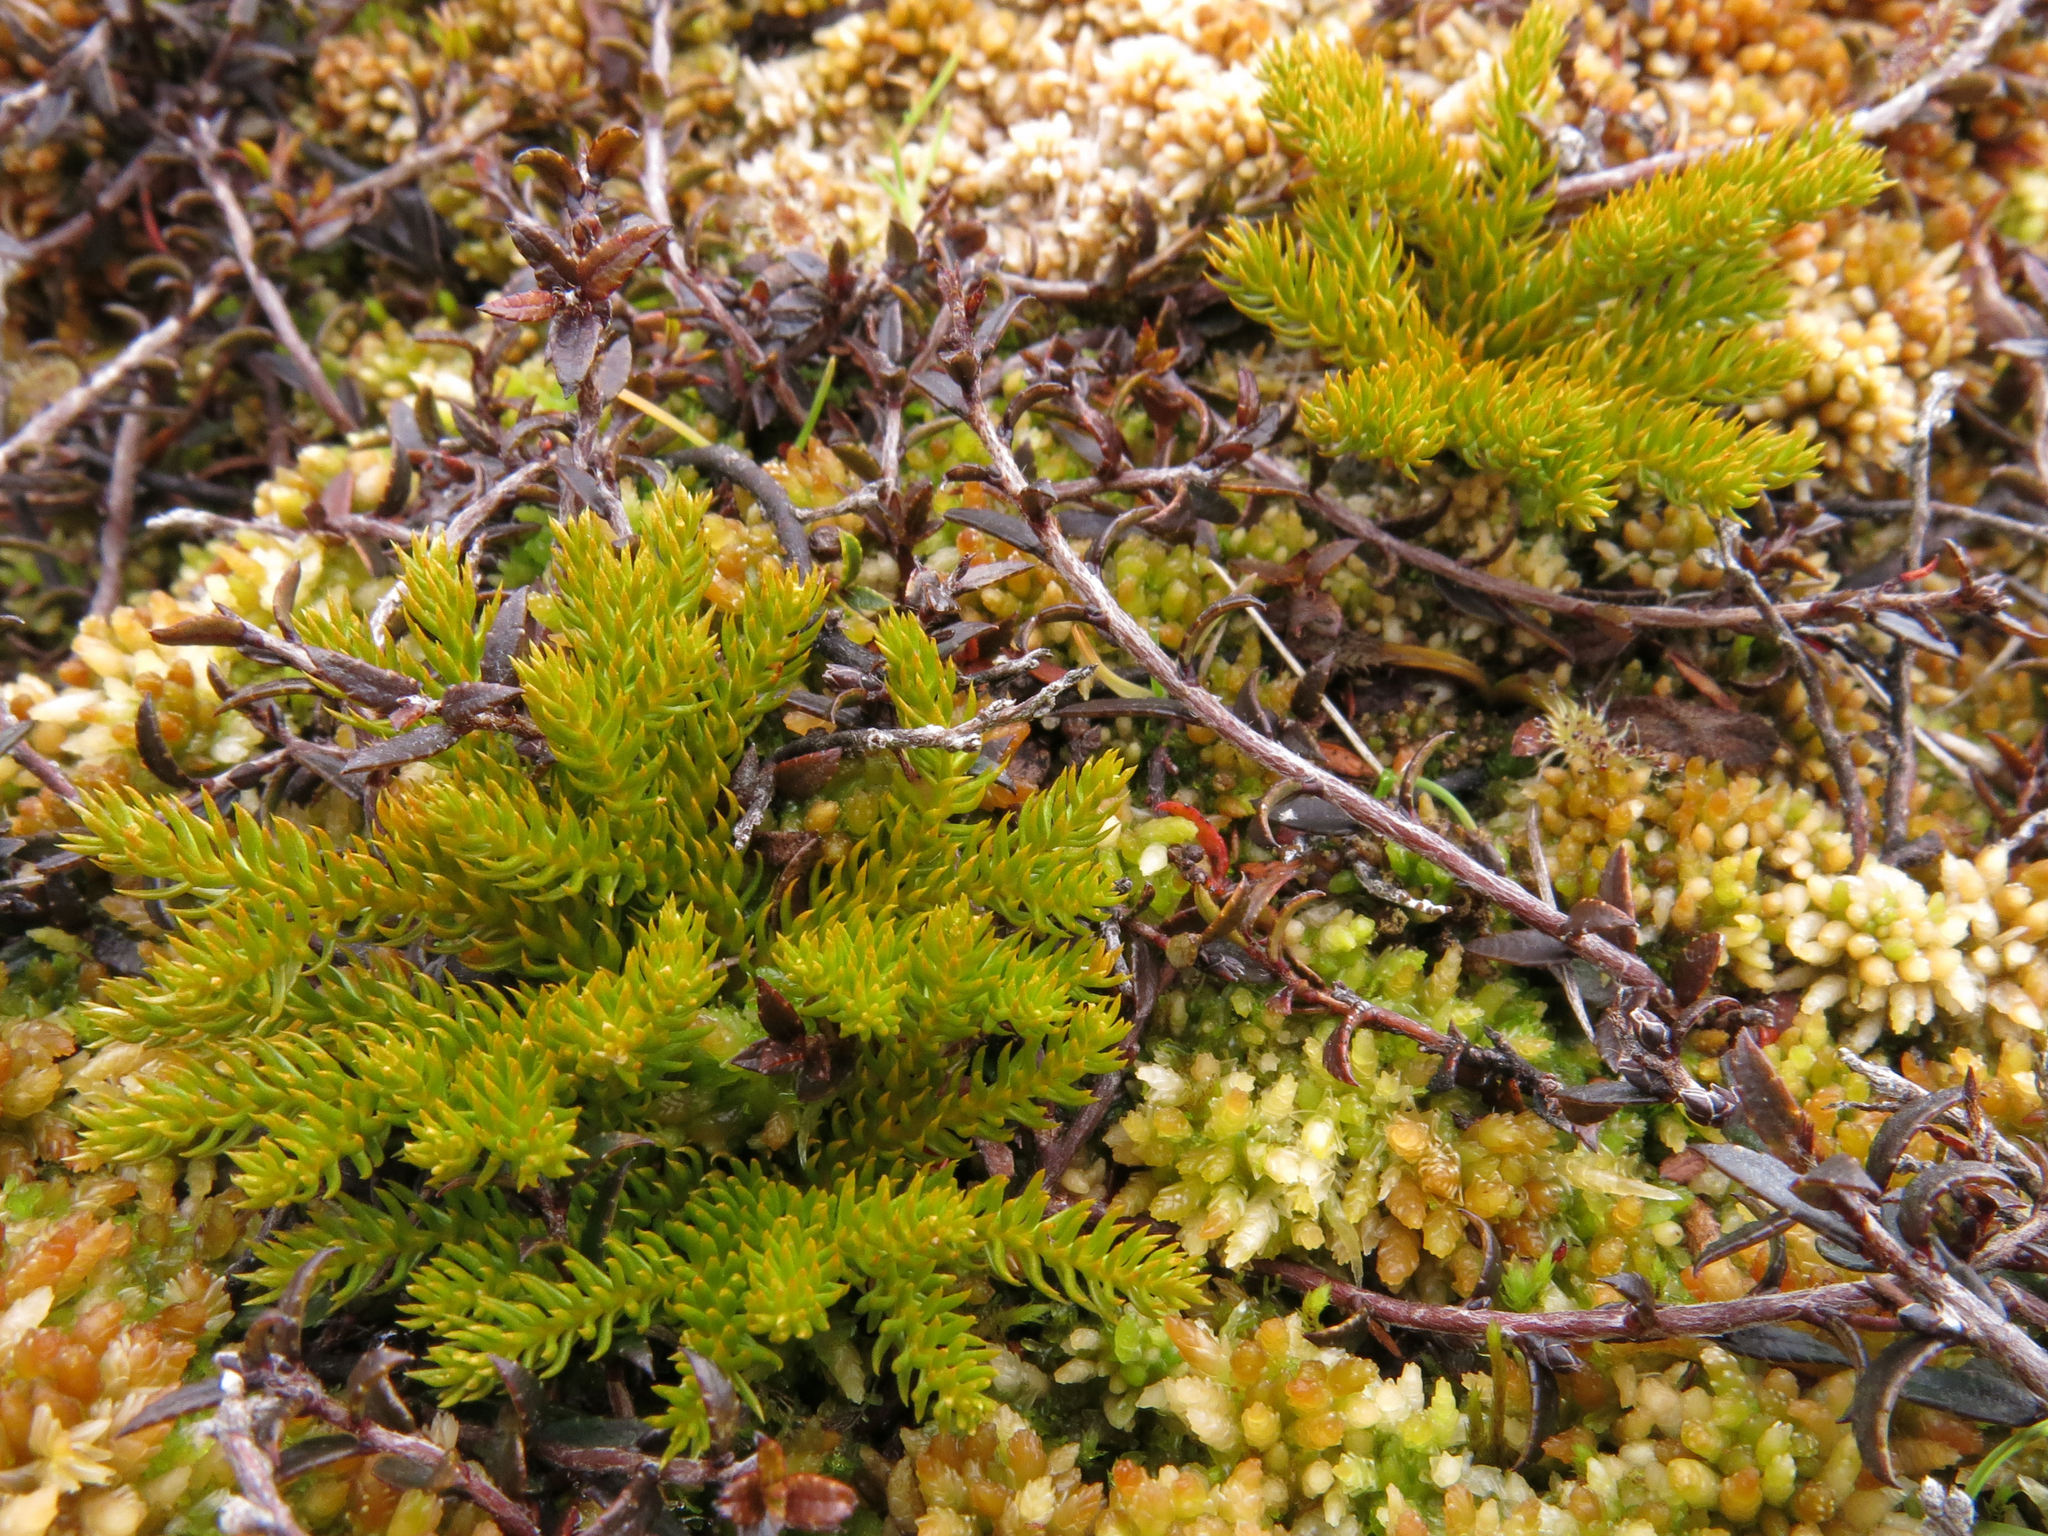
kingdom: Plantae
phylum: Tracheophyta
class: Lycopodiopsida
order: Lycopodiales
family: Lycopodiaceae
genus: Austrolycopodium
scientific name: Austrolycopodium fastigiatum
